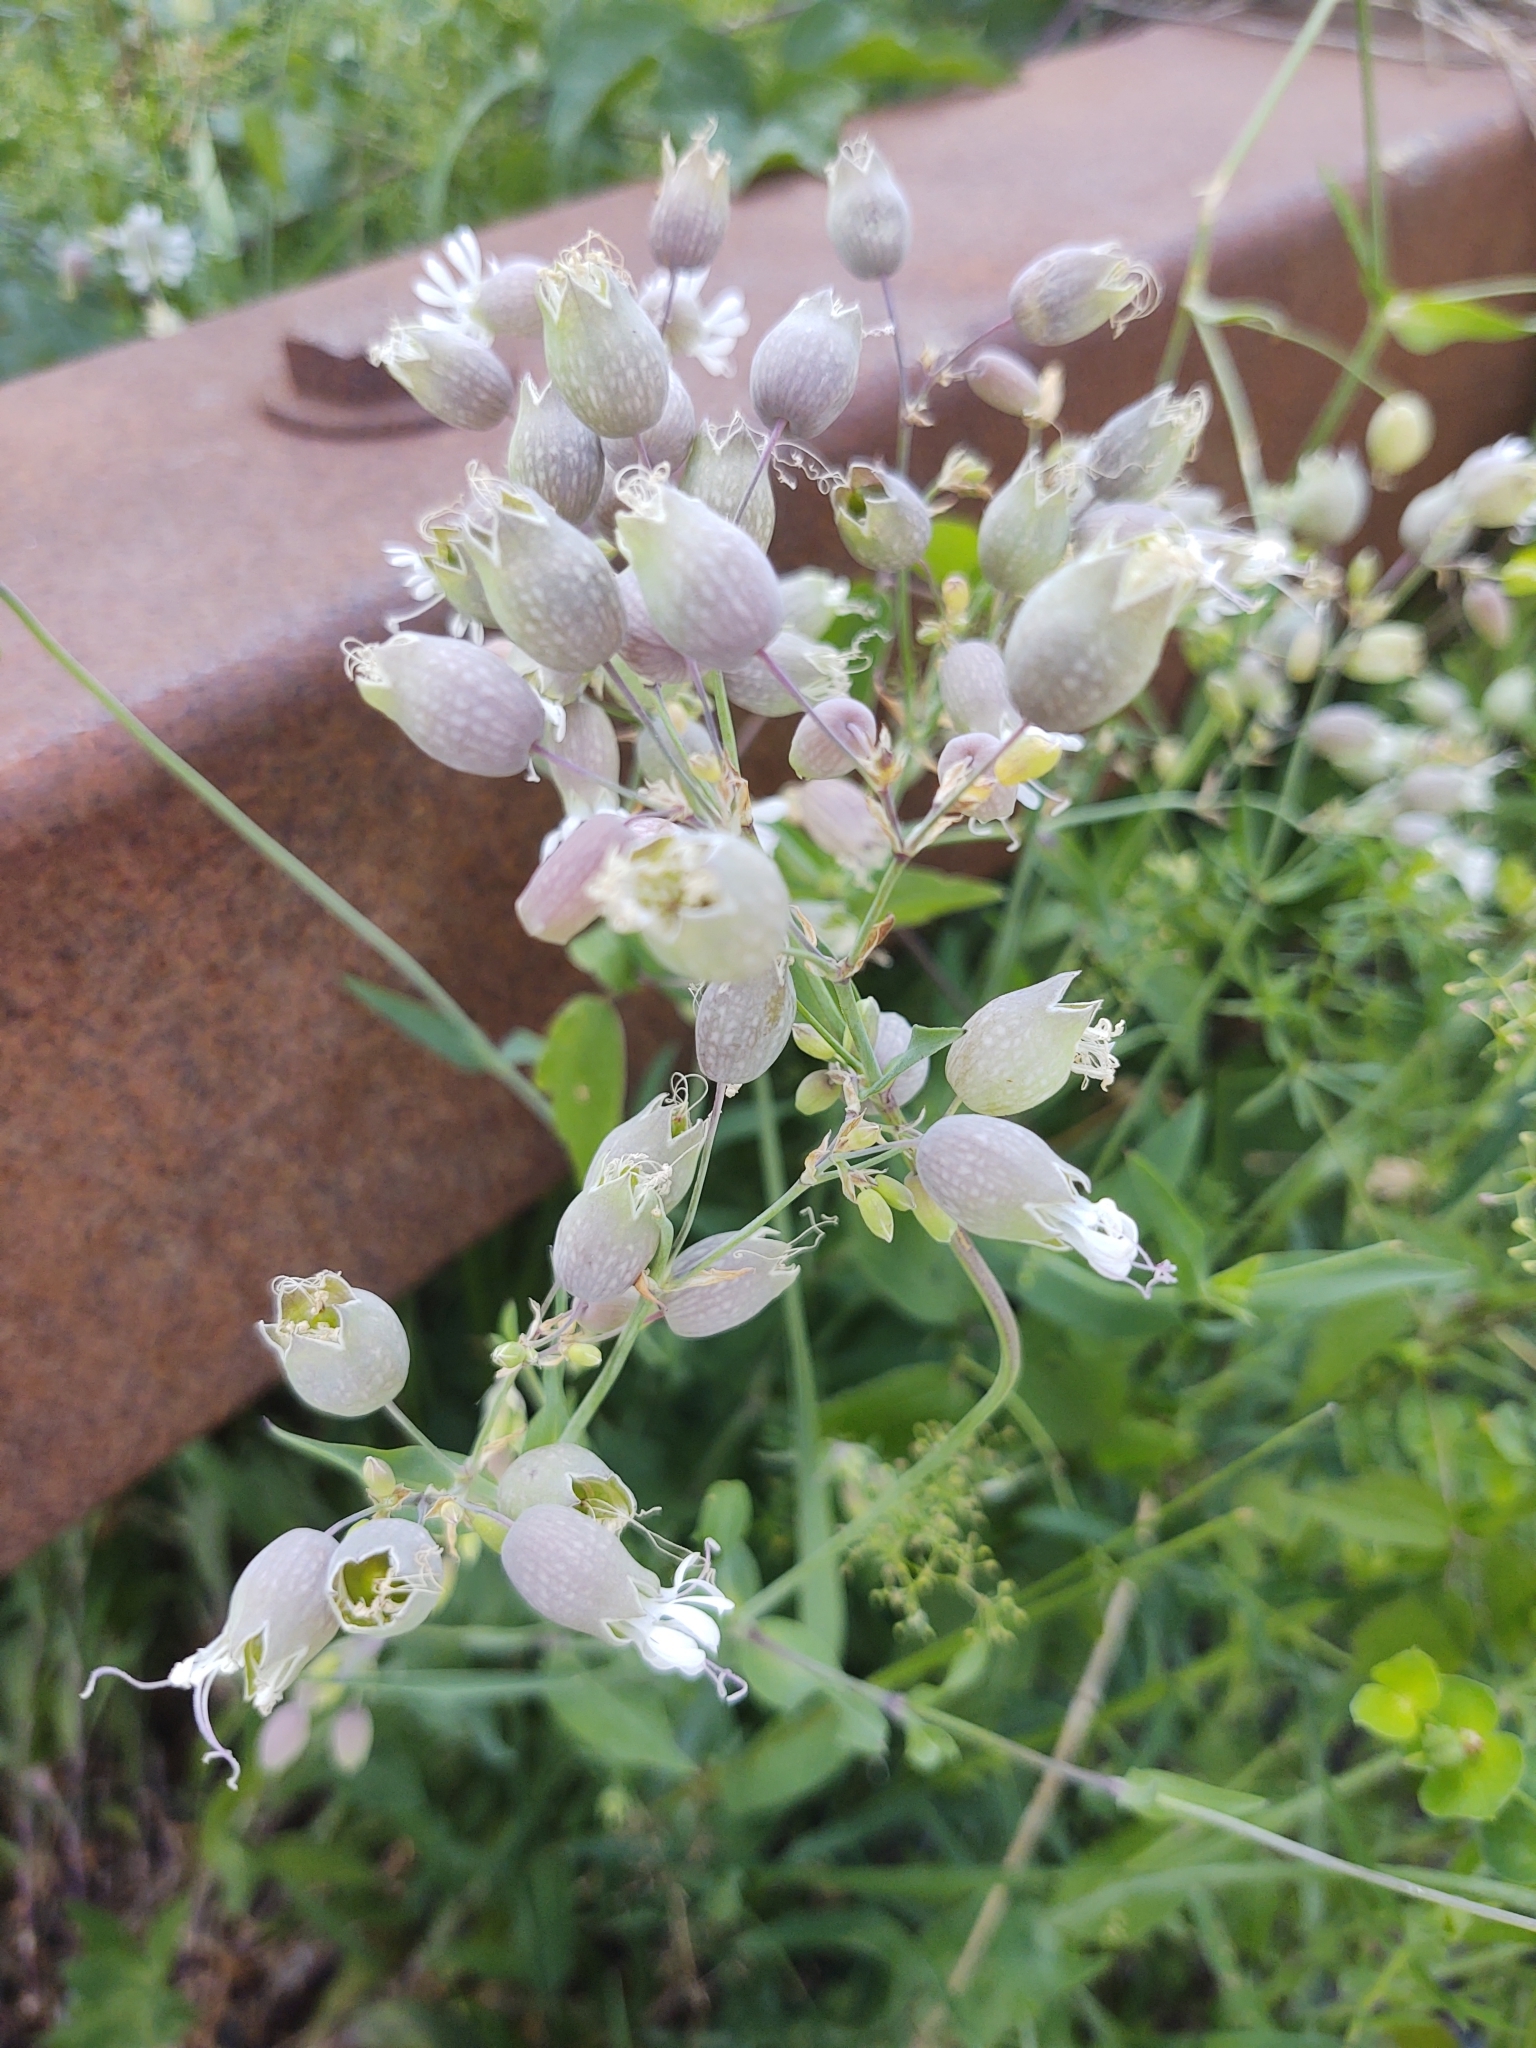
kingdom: Plantae
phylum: Tracheophyta
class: Magnoliopsida
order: Caryophyllales
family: Caryophyllaceae
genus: Silene
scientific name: Silene vulgaris
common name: Bladder campion
